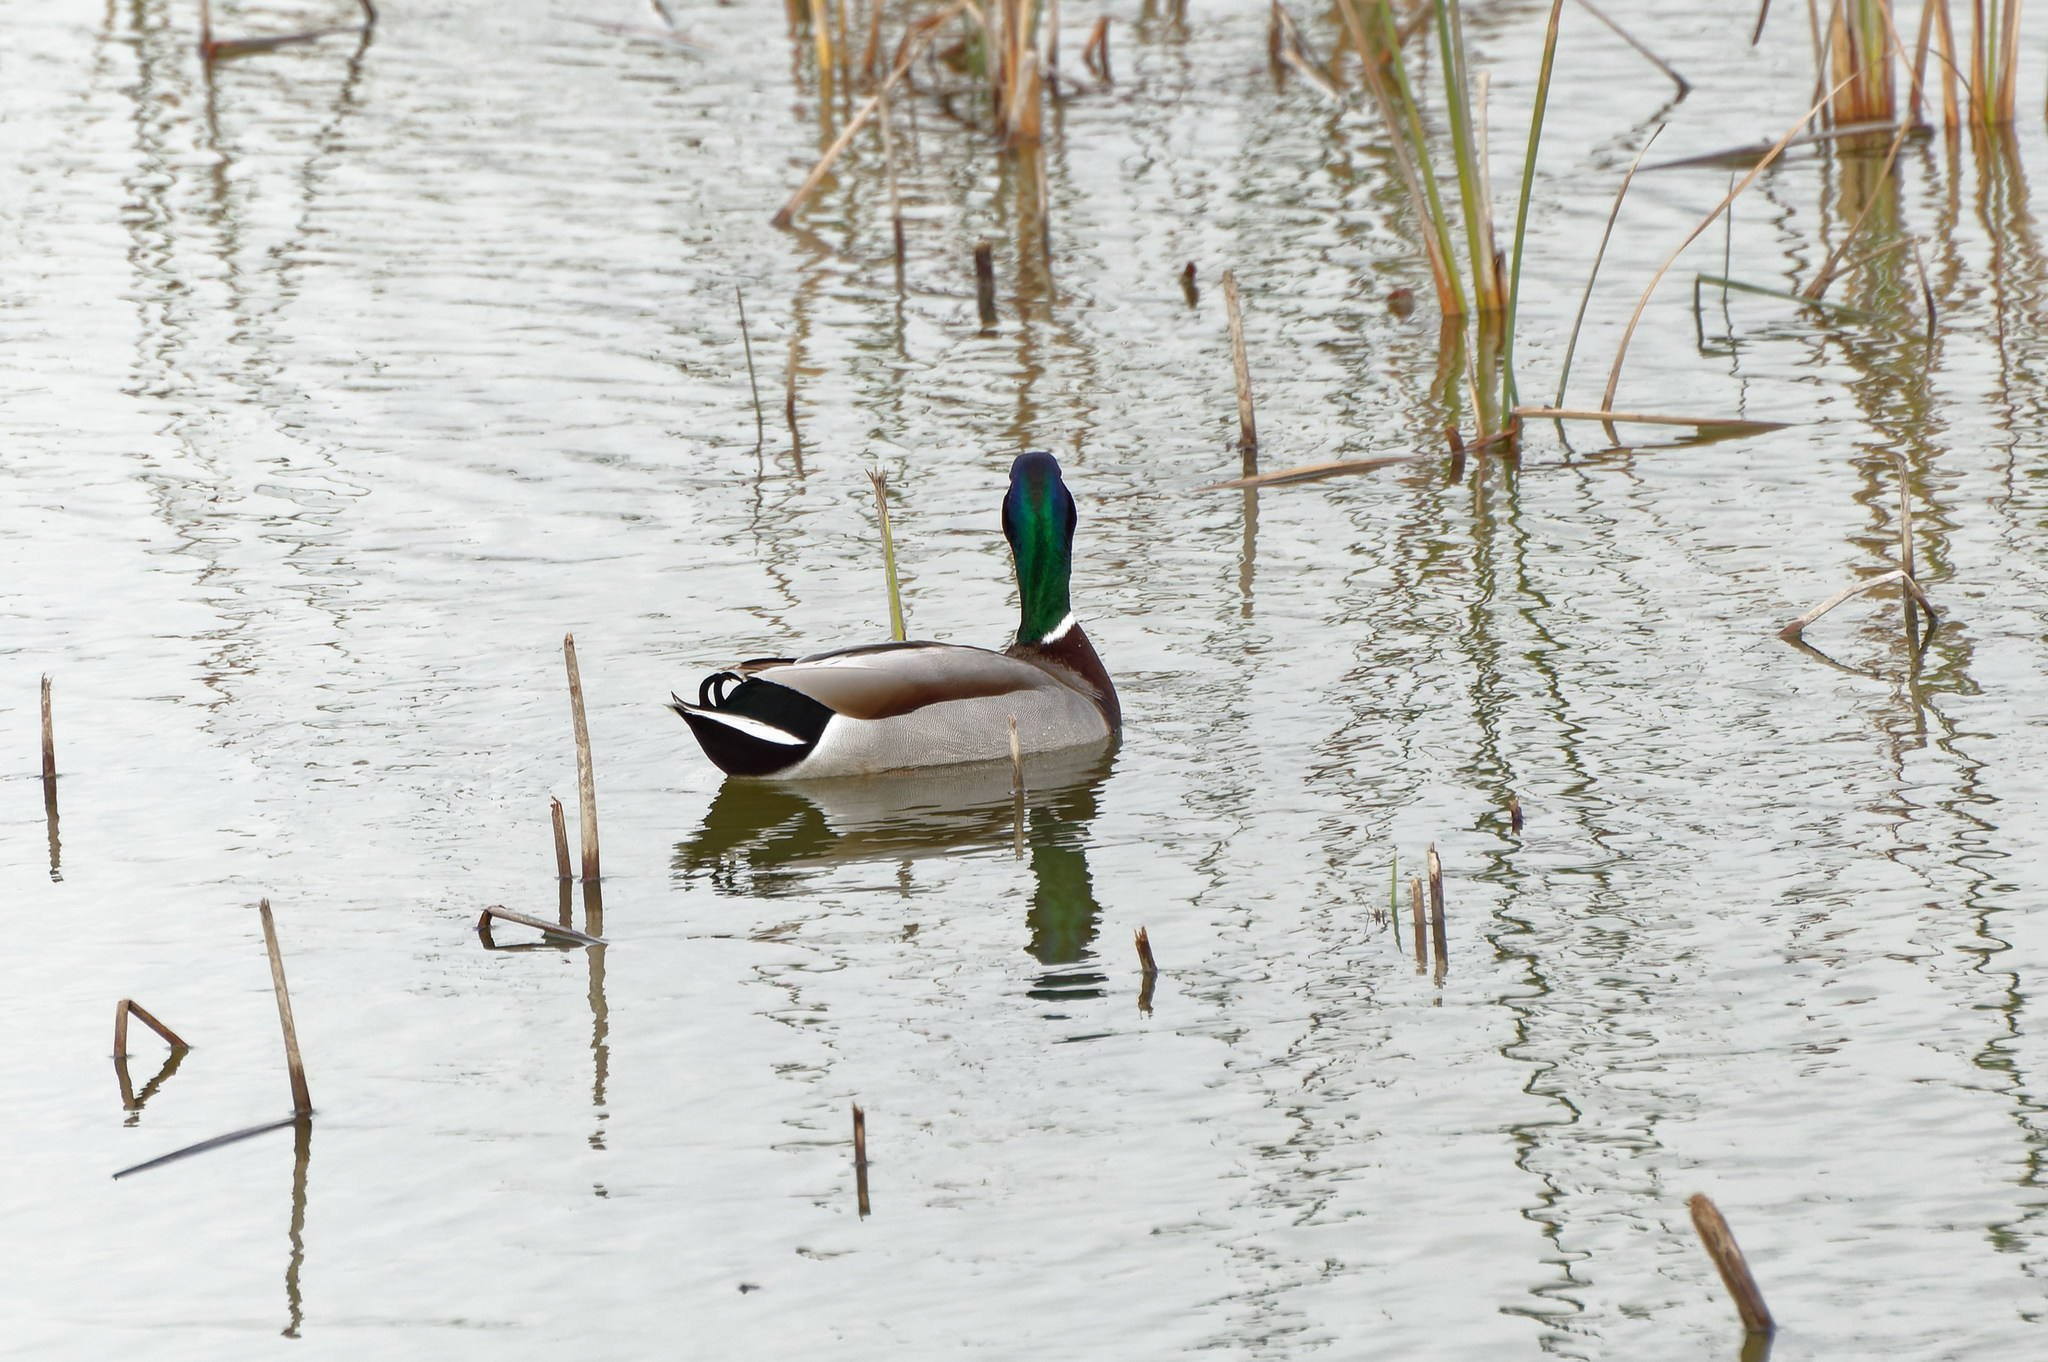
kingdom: Animalia
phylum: Chordata
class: Aves
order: Anseriformes
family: Anatidae
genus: Anas
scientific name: Anas platyrhynchos
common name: Mallard
